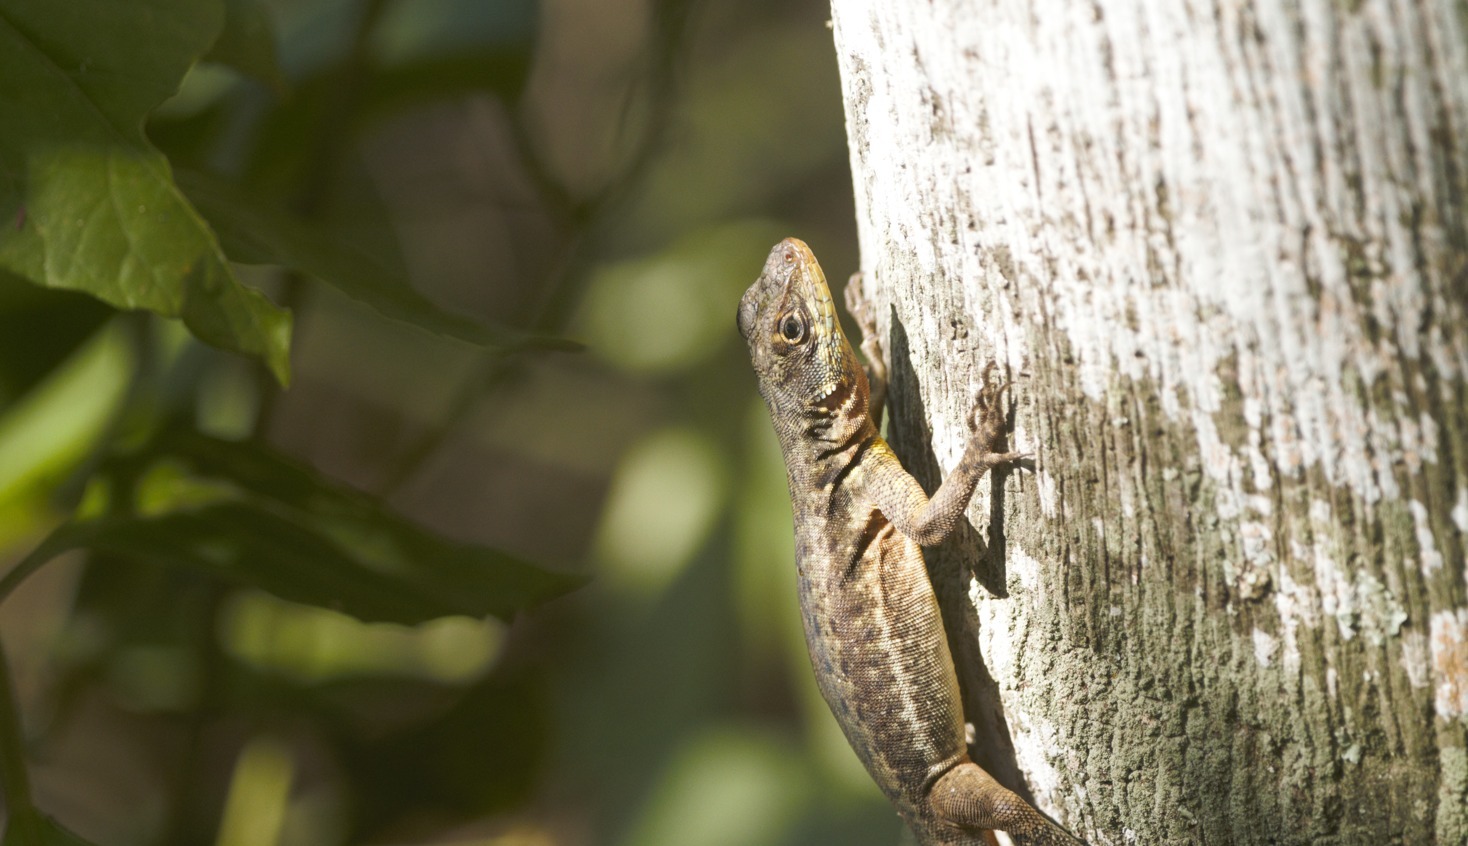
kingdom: Animalia
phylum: Chordata
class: Squamata
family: Tropiduridae
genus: Tropidurus
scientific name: Tropidurus catalanensis
